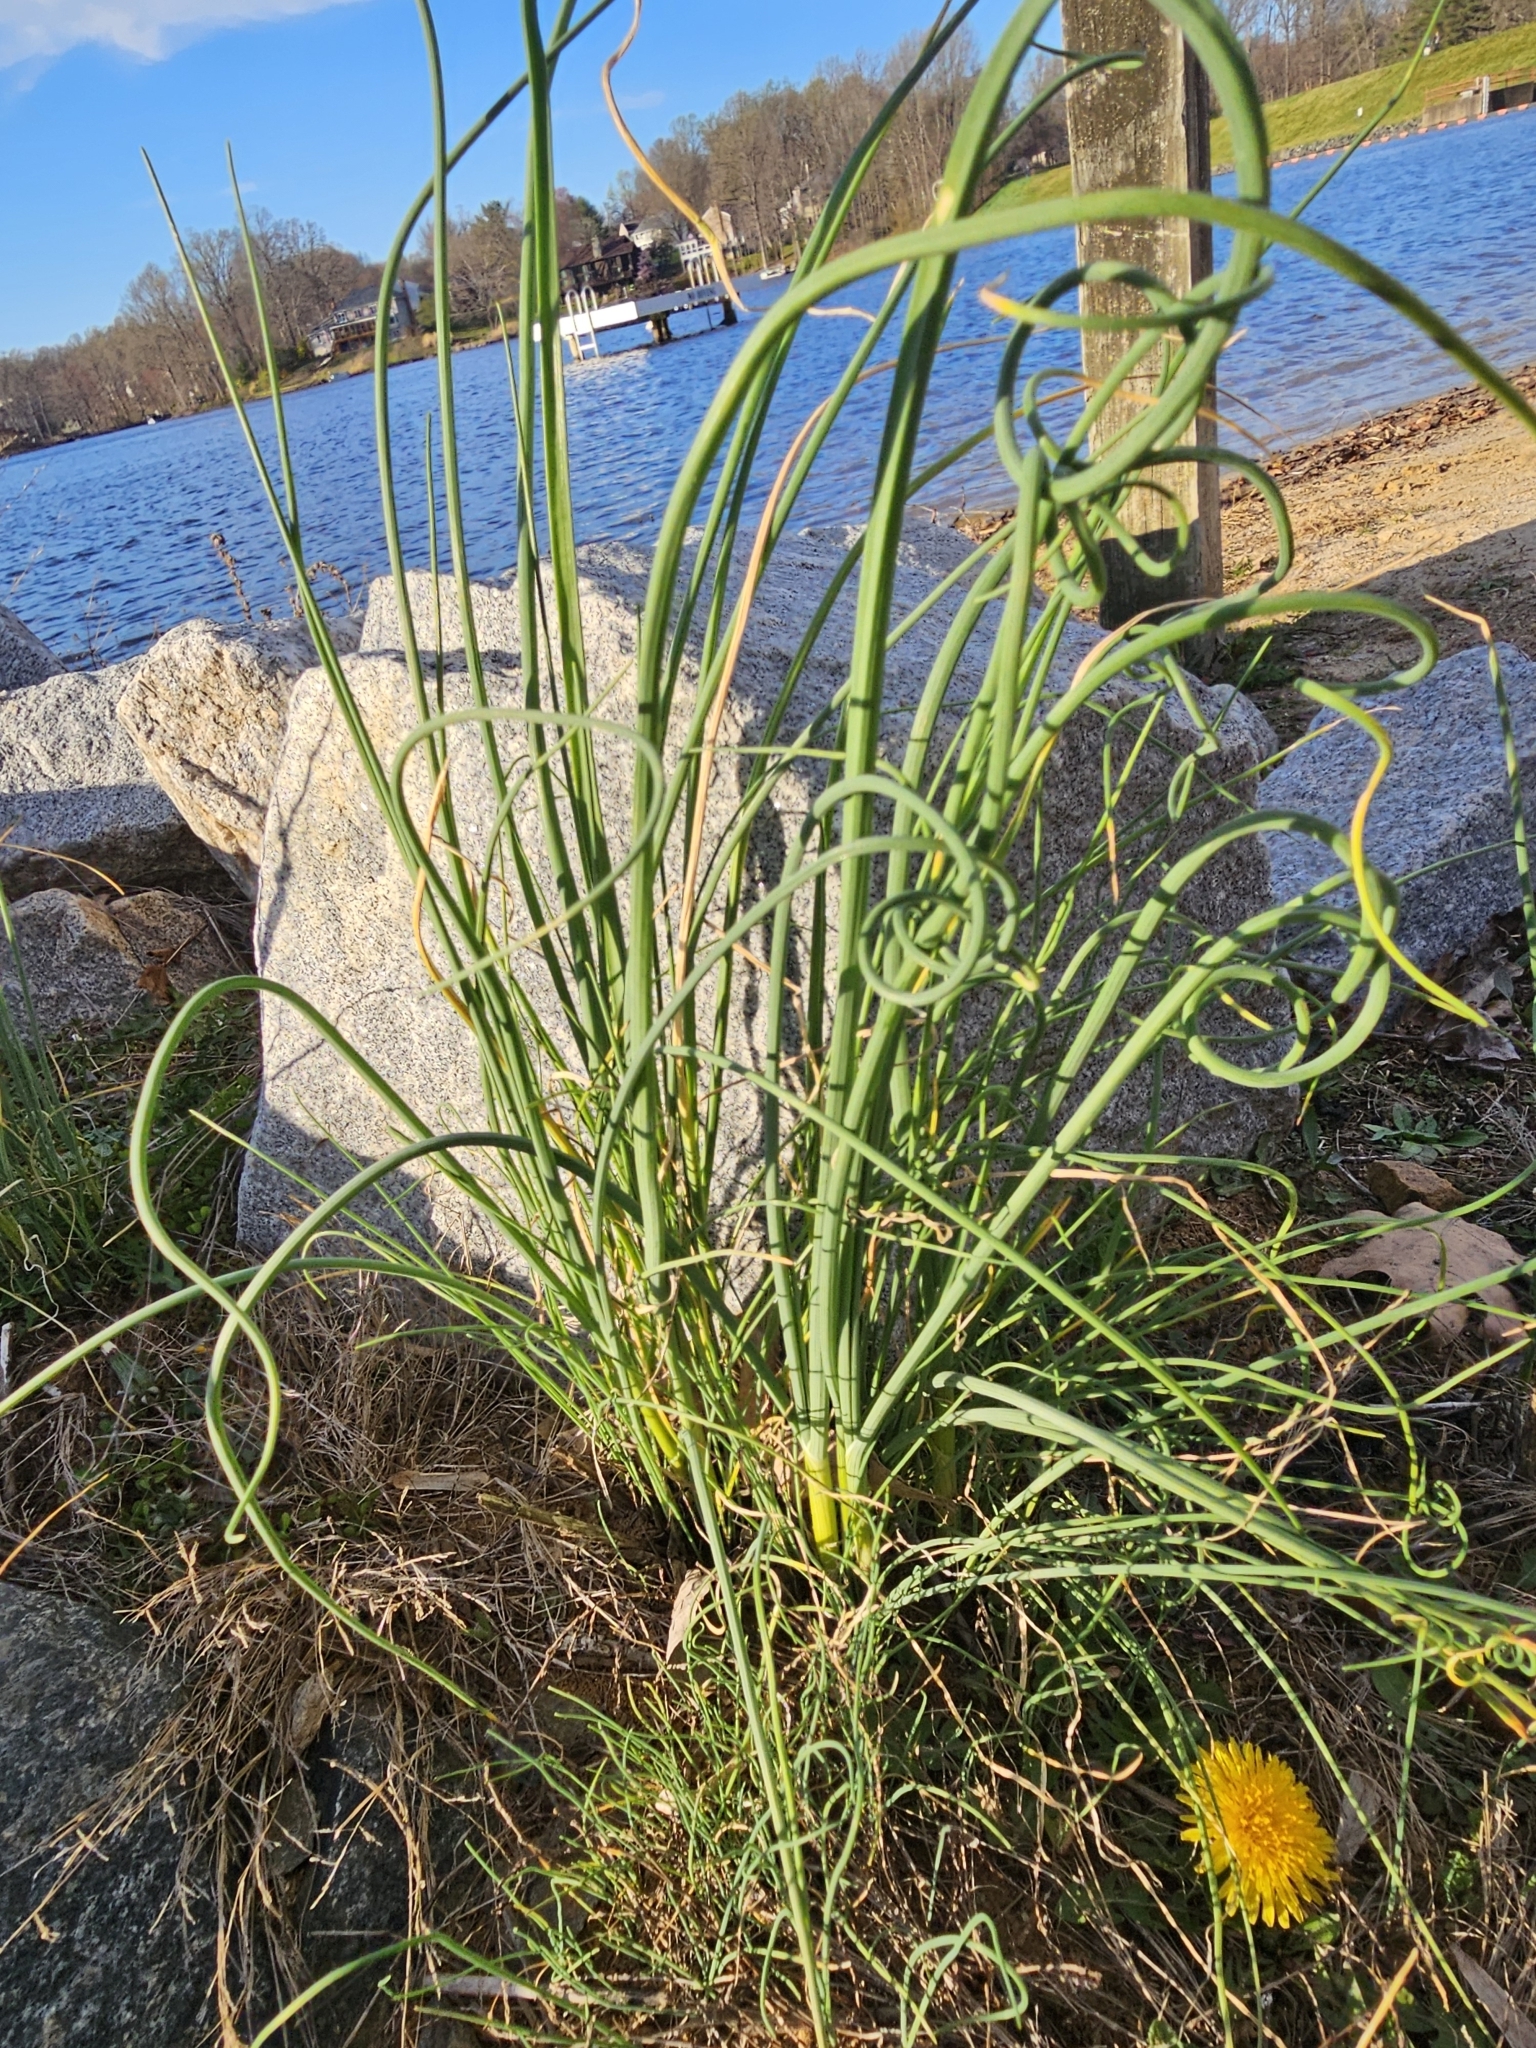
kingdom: Plantae
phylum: Tracheophyta
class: Liliopsida
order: Asparagales
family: Amaryllidaceae
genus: Allium
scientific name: Allium vineale
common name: Crow garlic
